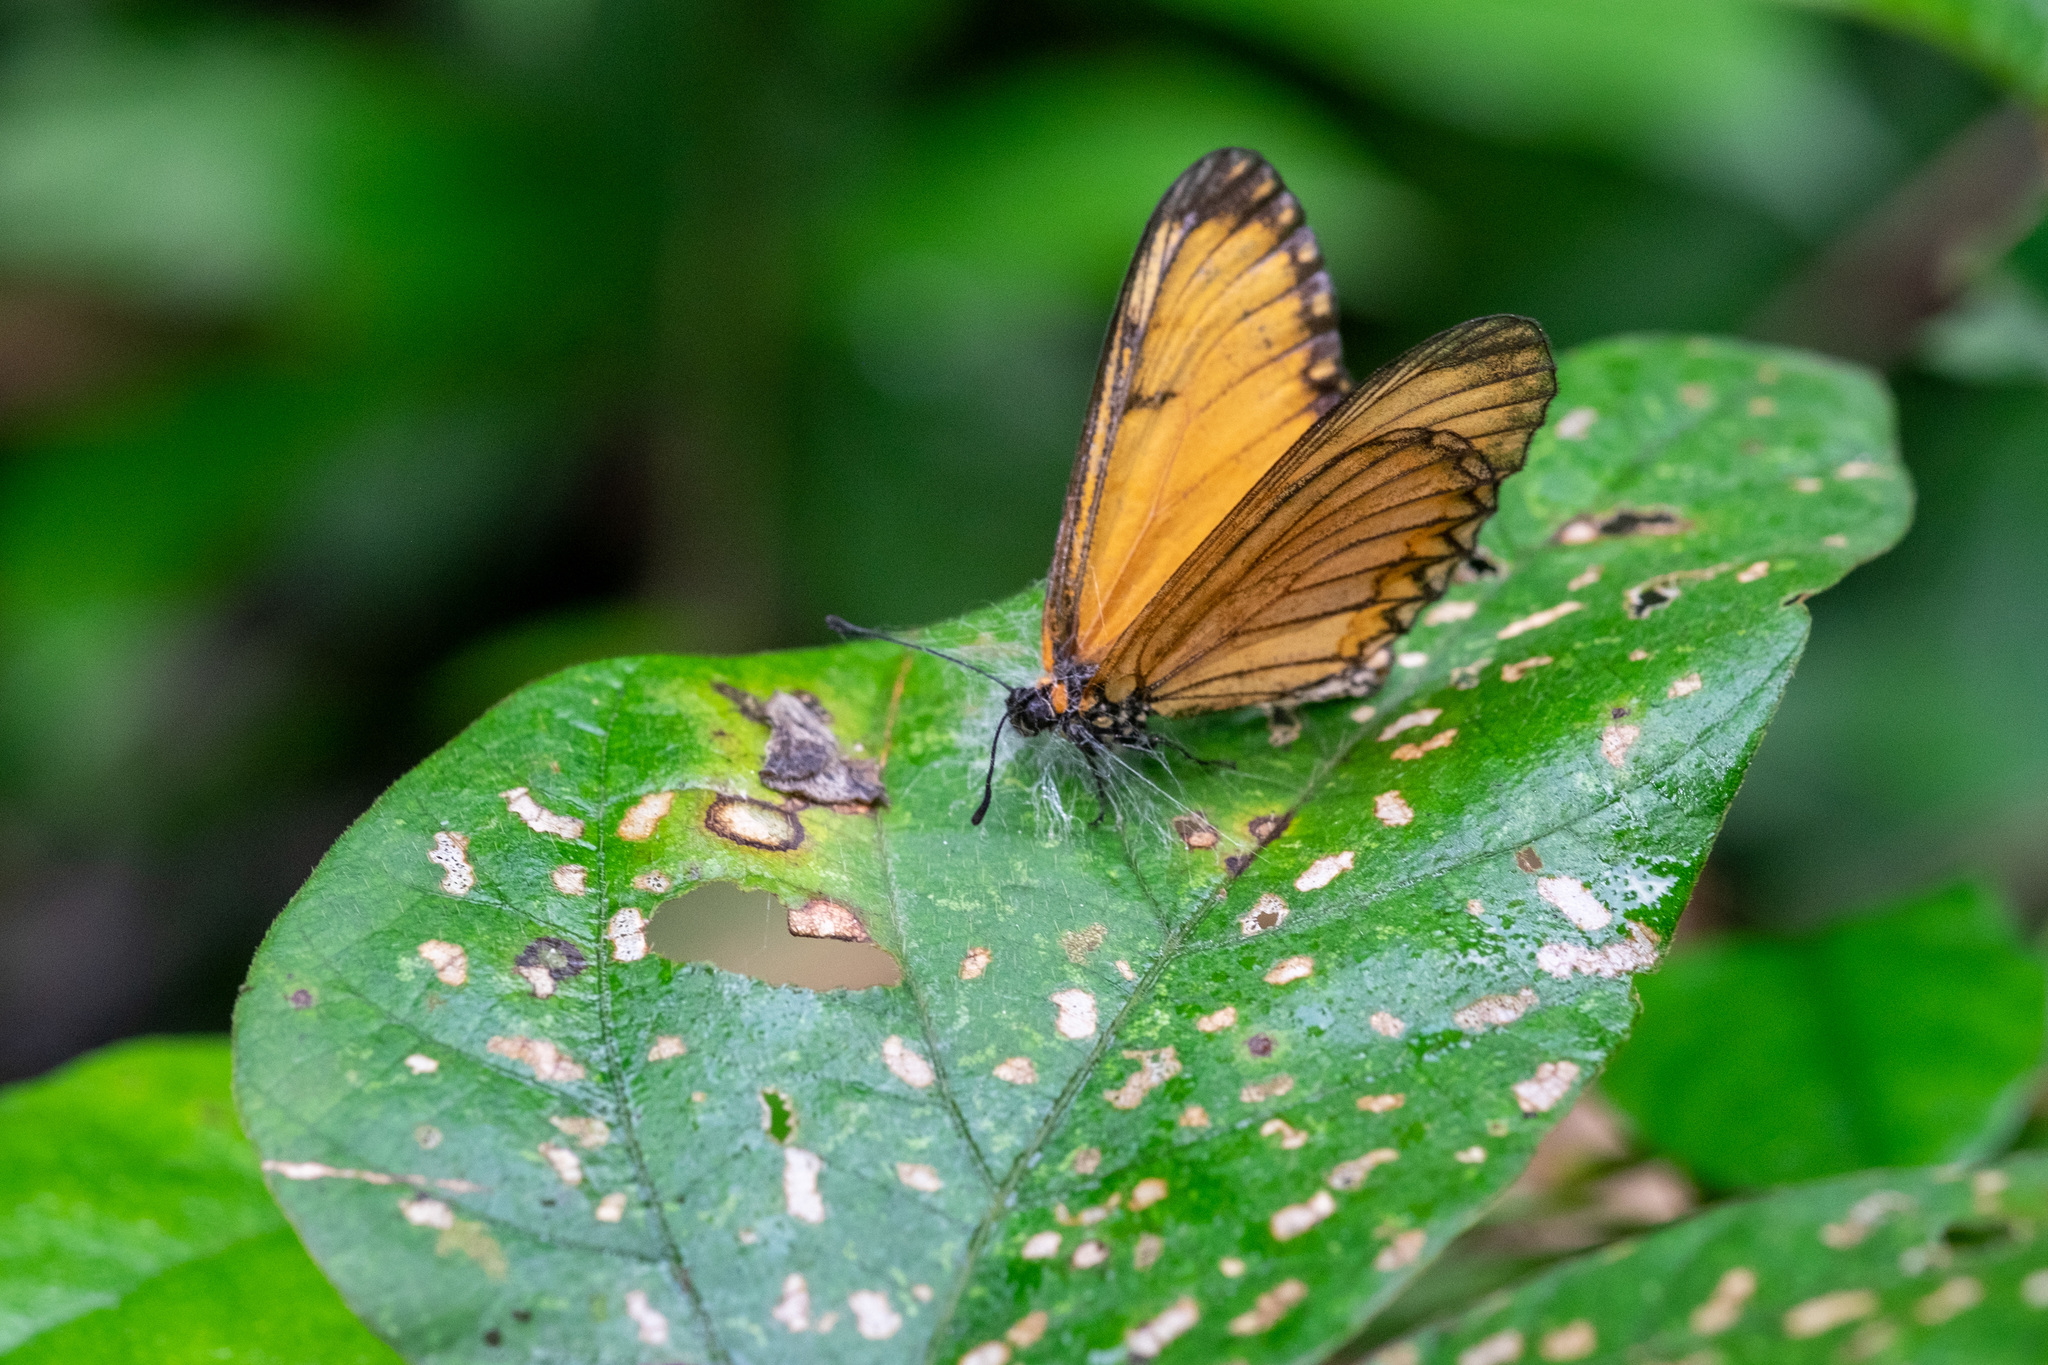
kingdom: Animalia
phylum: Arthropoda
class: Insecta
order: Lepidoptera
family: Nymphalidae
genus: Acraea
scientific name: Acraea Telchinia issoria
